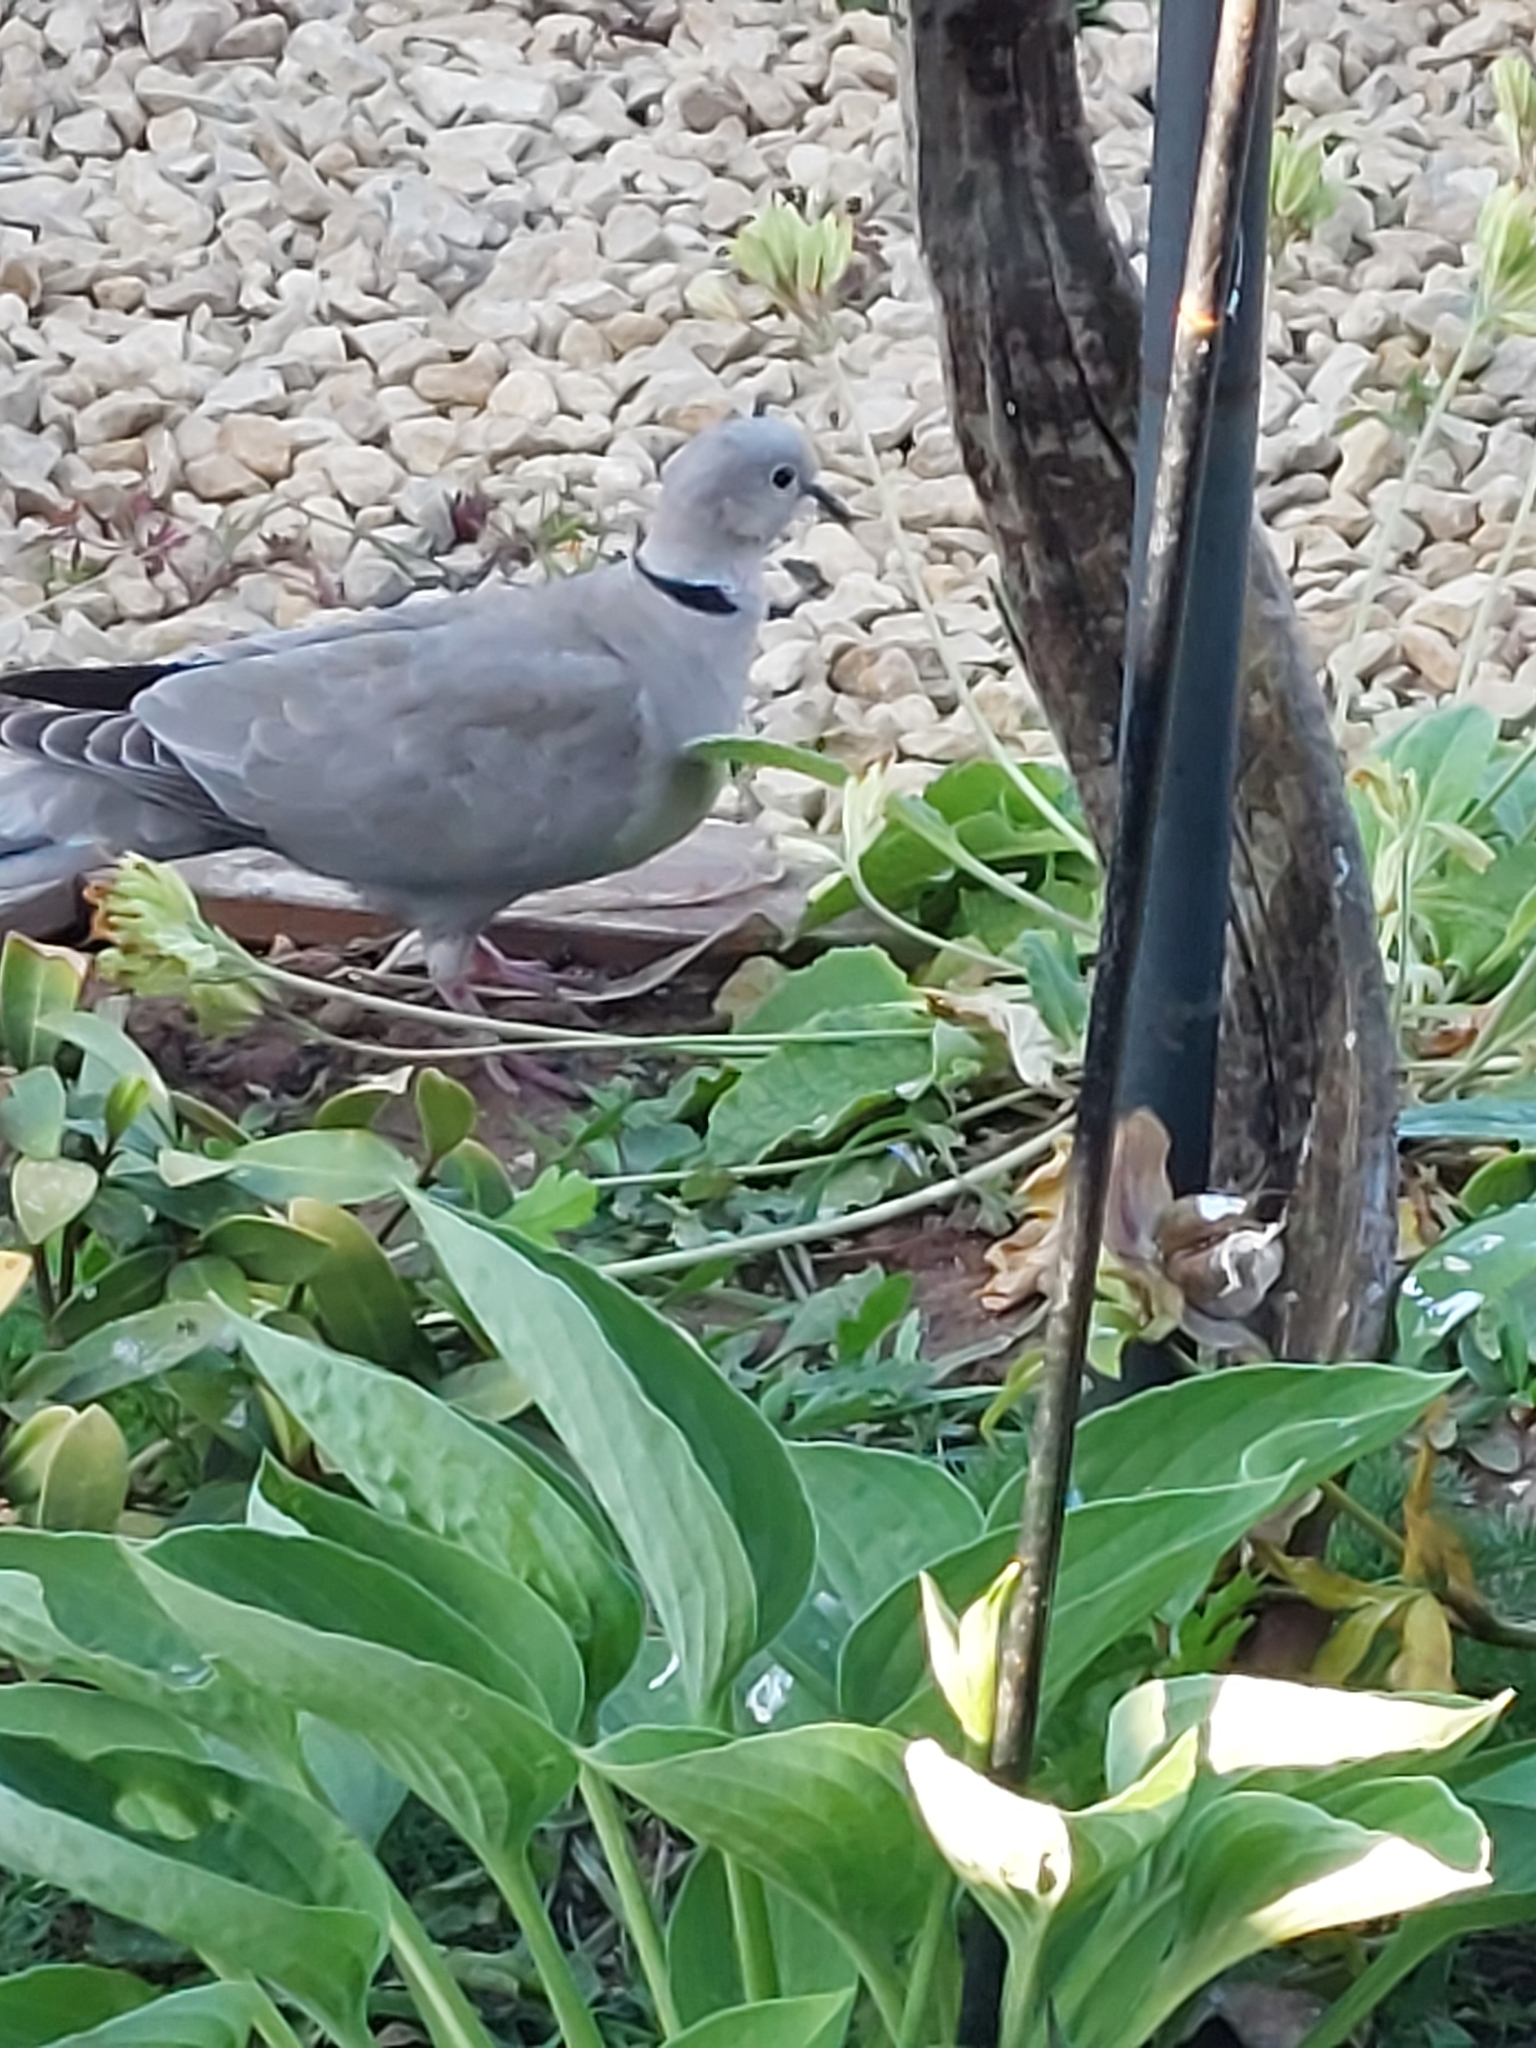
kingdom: Animalia
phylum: Chordata
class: Aves
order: Columbiformes
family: Columbidae
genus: Streptopelia
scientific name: Streptopelia decaocto
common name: Eurasian collared dove
